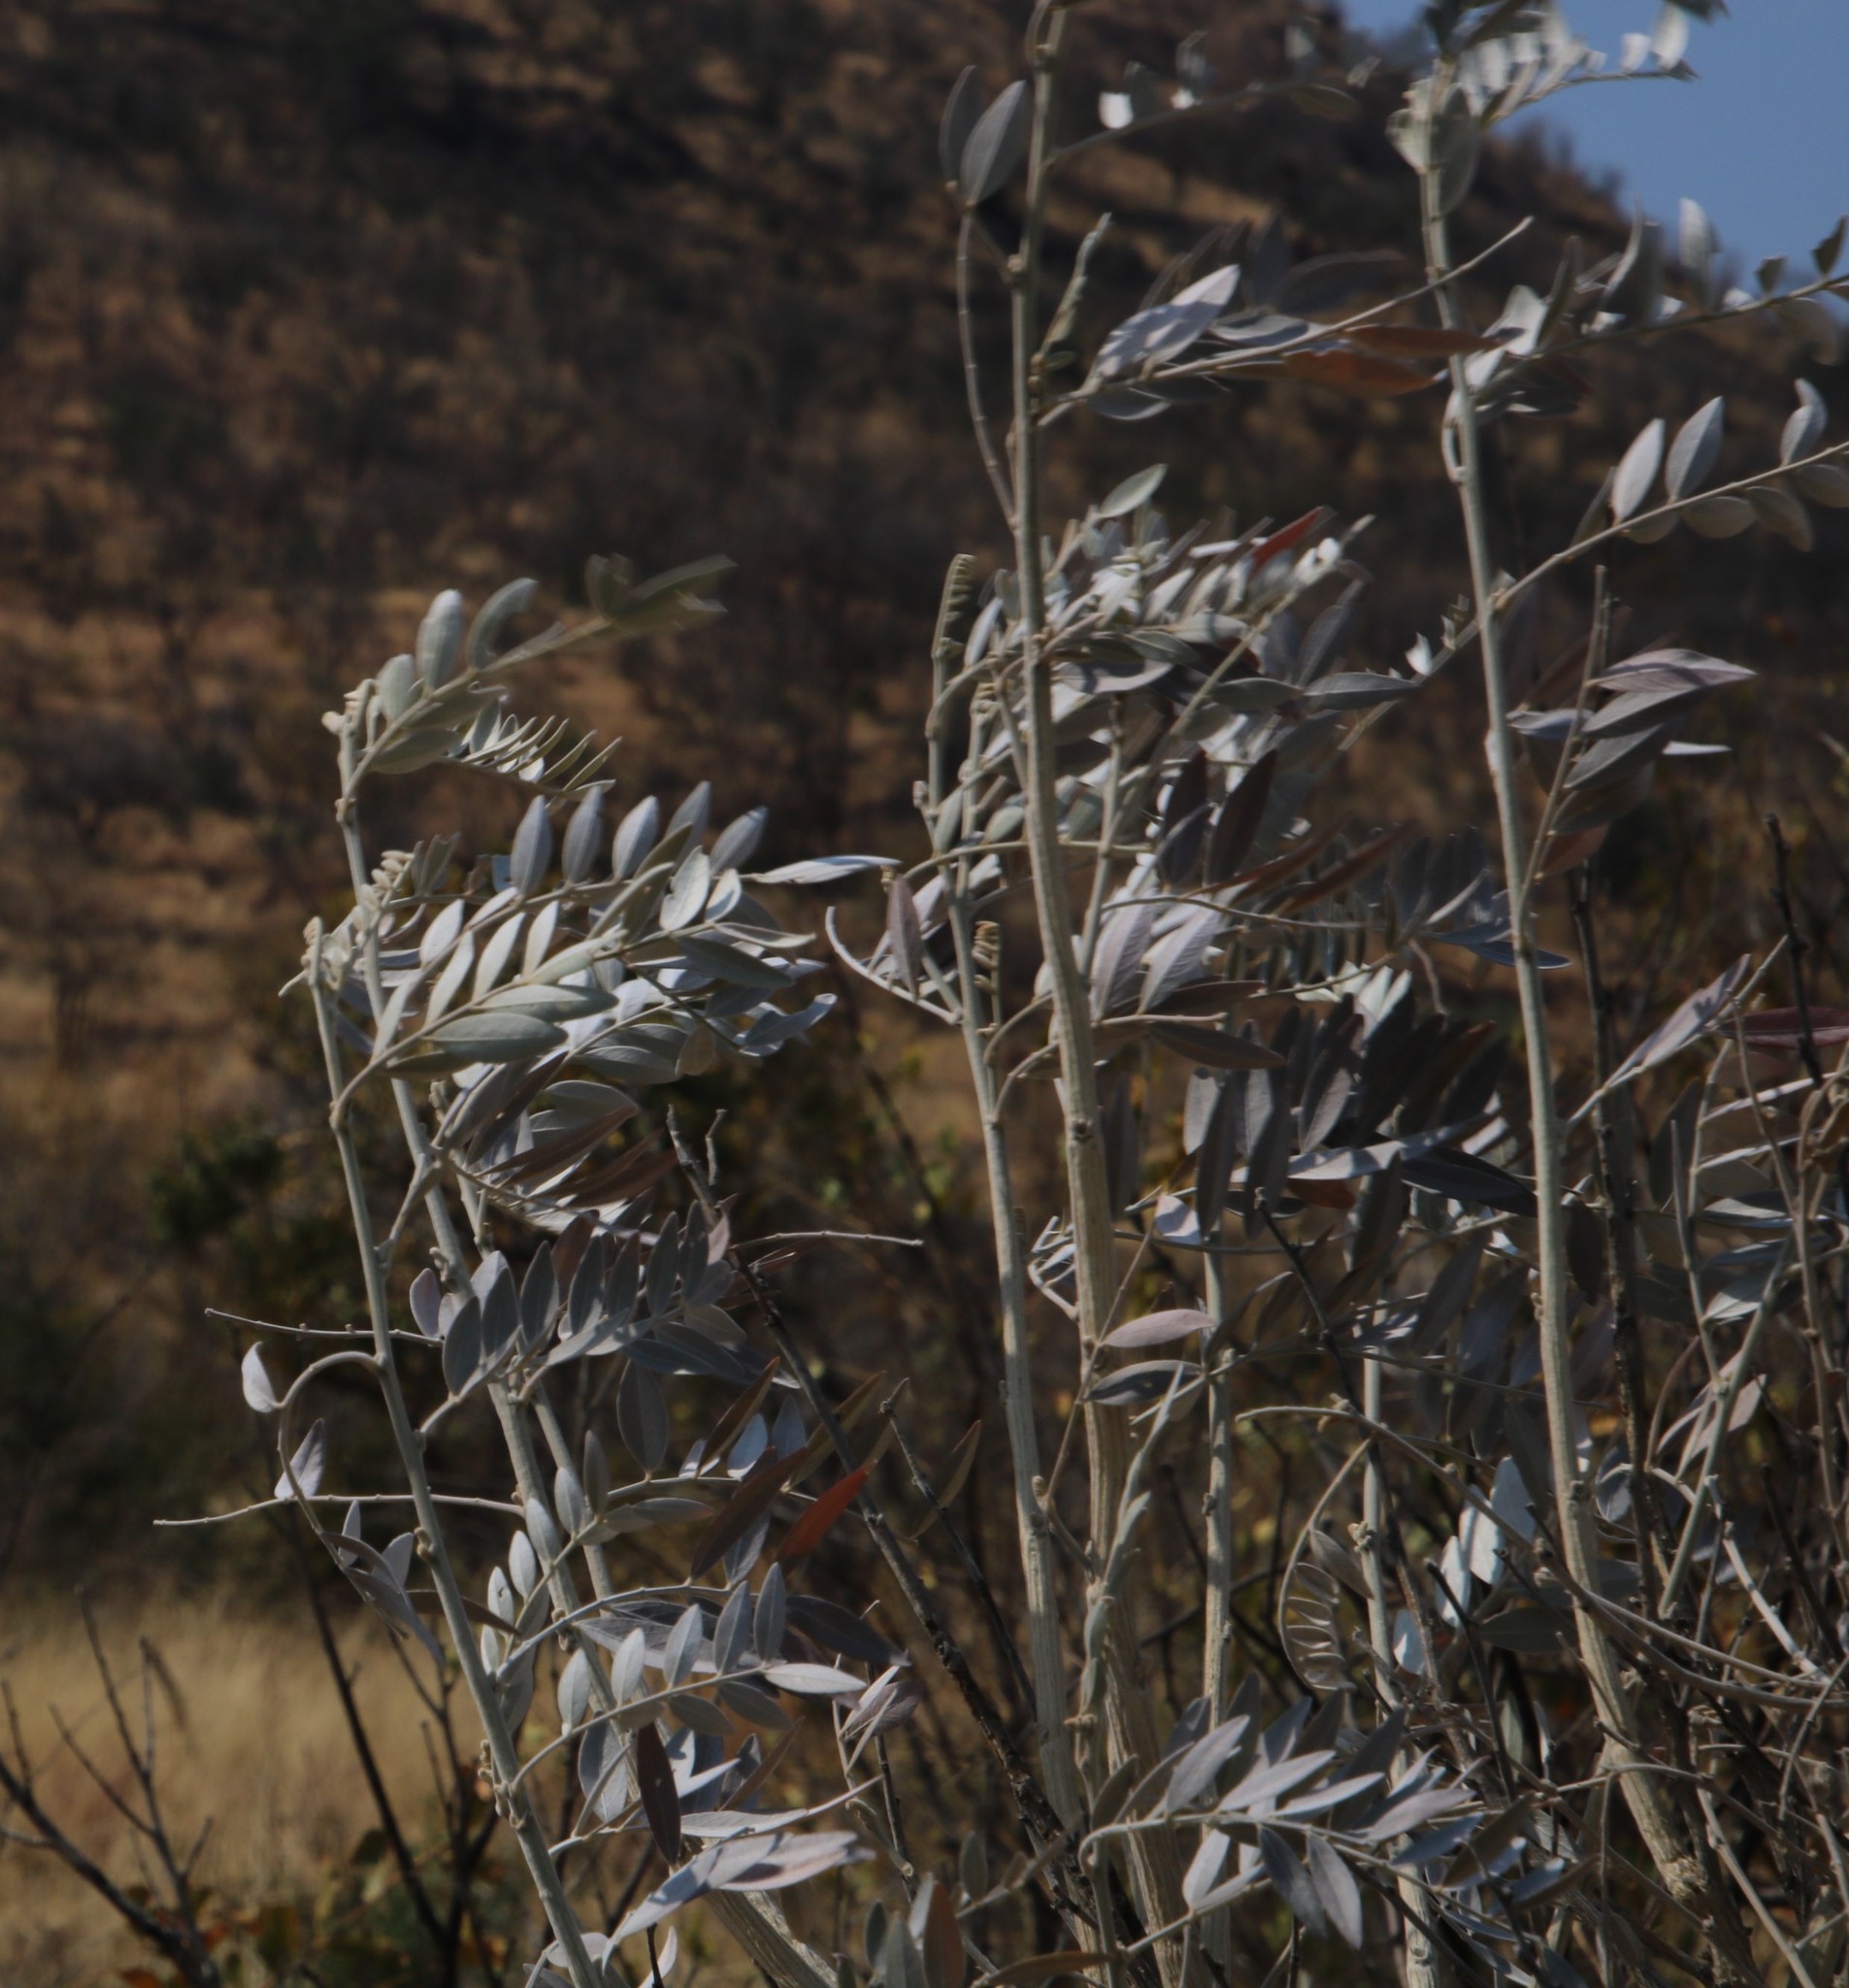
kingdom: Plantae
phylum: Tracheophyta
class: Magnoliopsida
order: Fabales
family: Fabaceae
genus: Mundulea
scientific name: Mundulea sericea
